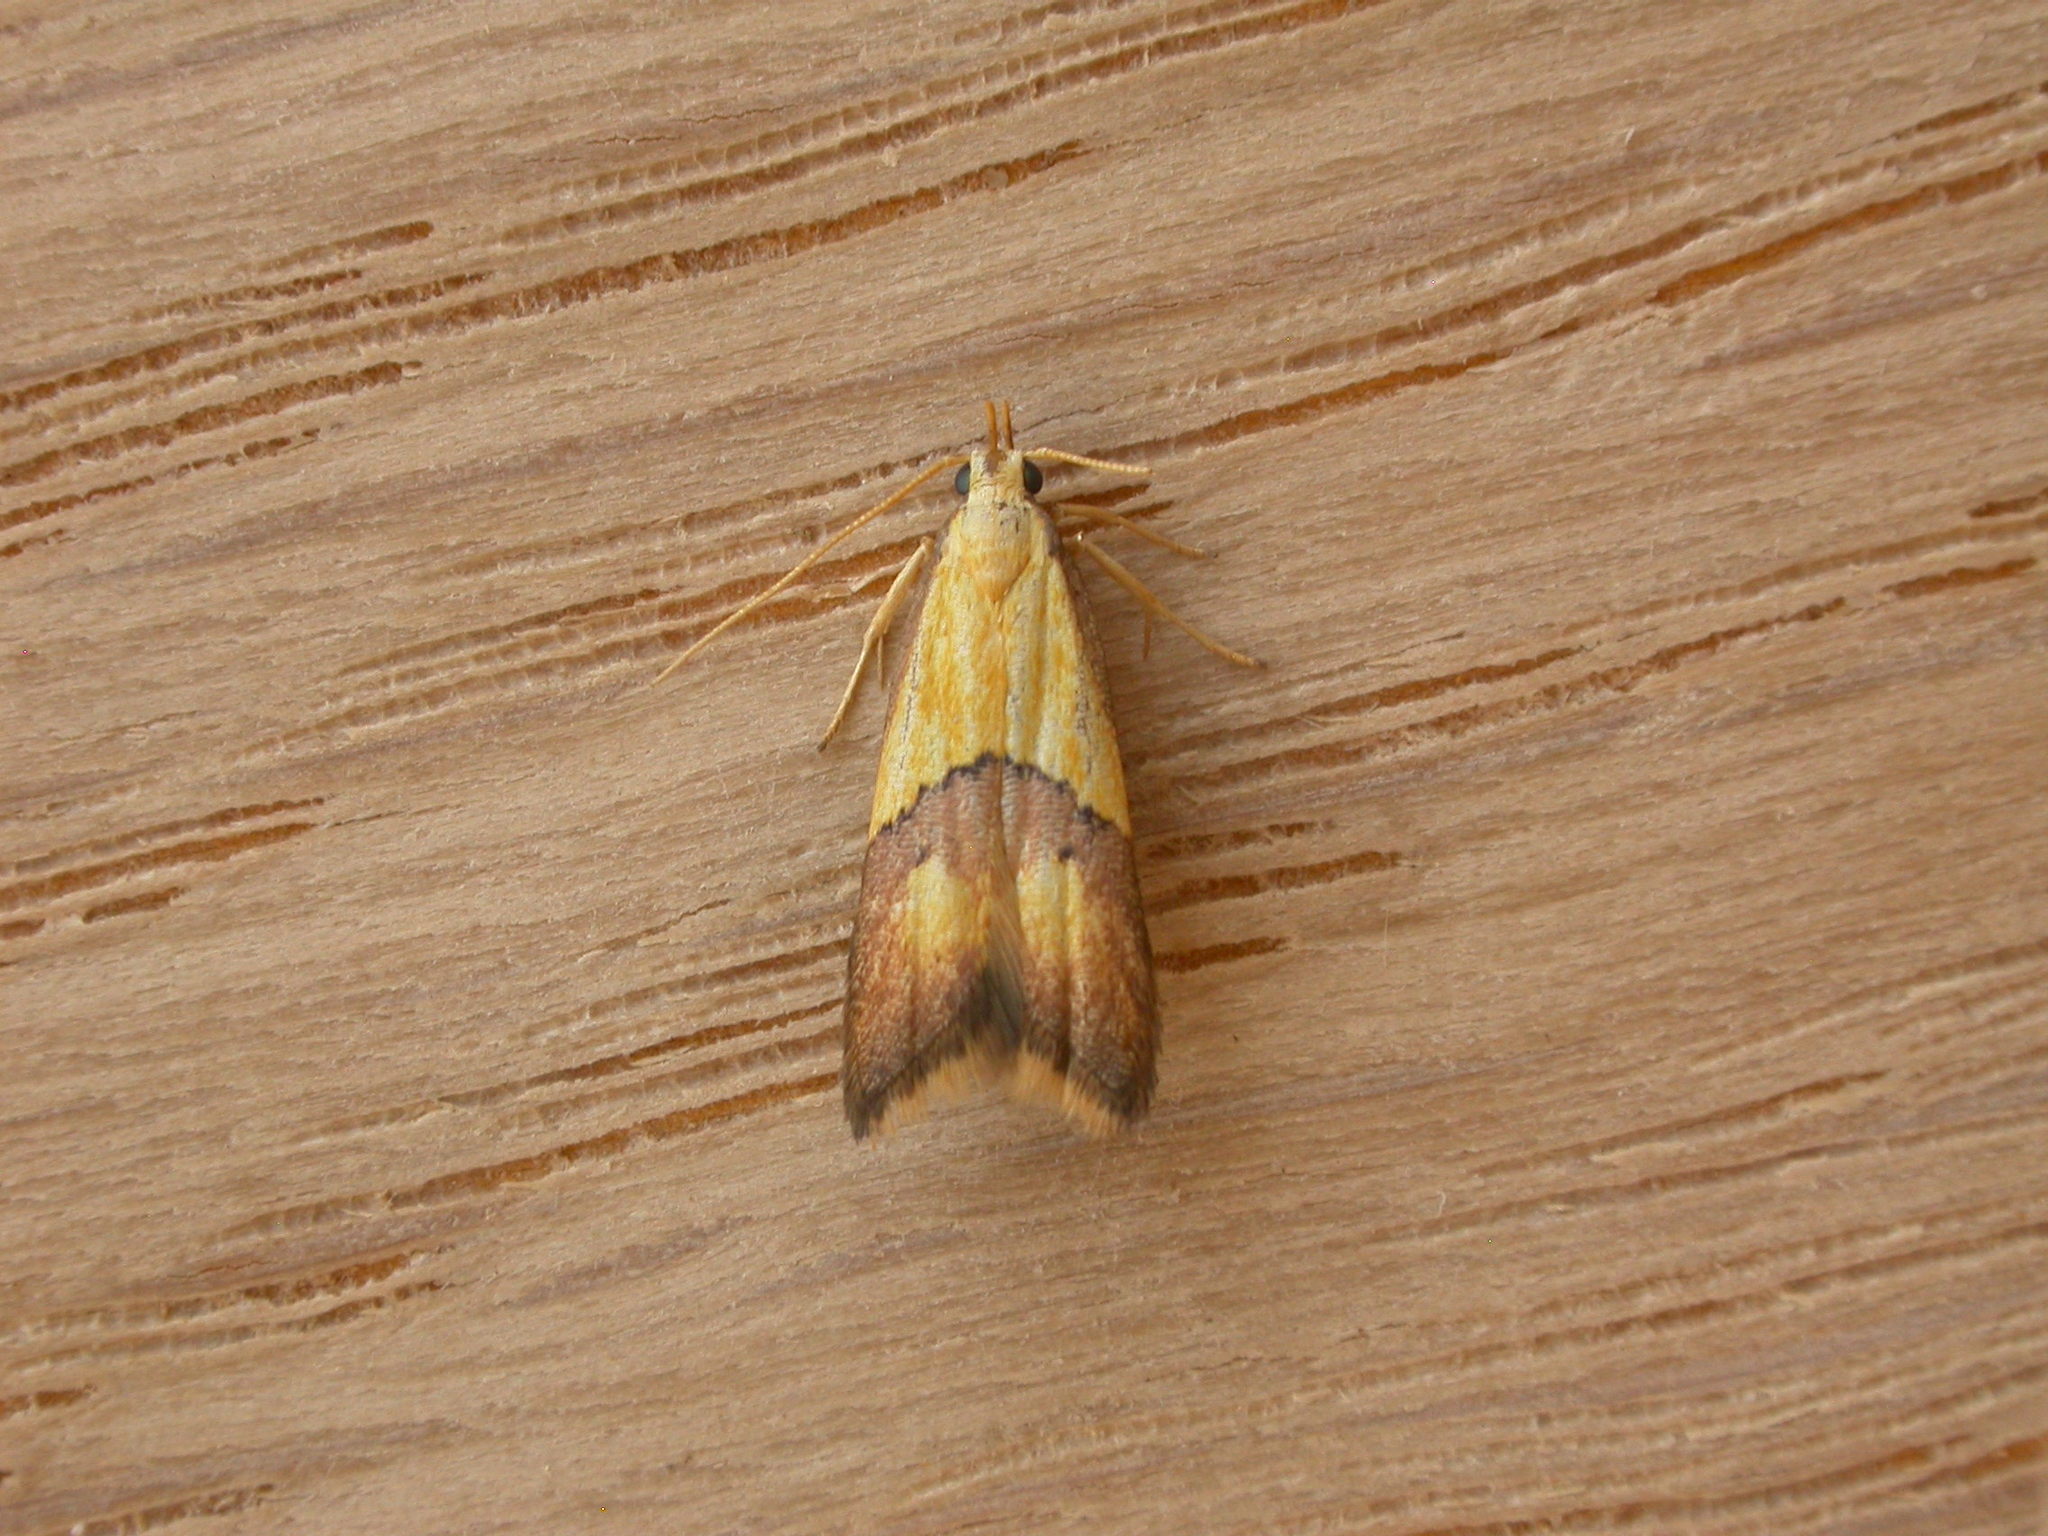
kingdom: Animalia
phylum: Arthropoda
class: Insecta
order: Lepidoptera
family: Lecithoceridae
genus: Crocanthes
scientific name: Crocanthes glycina
